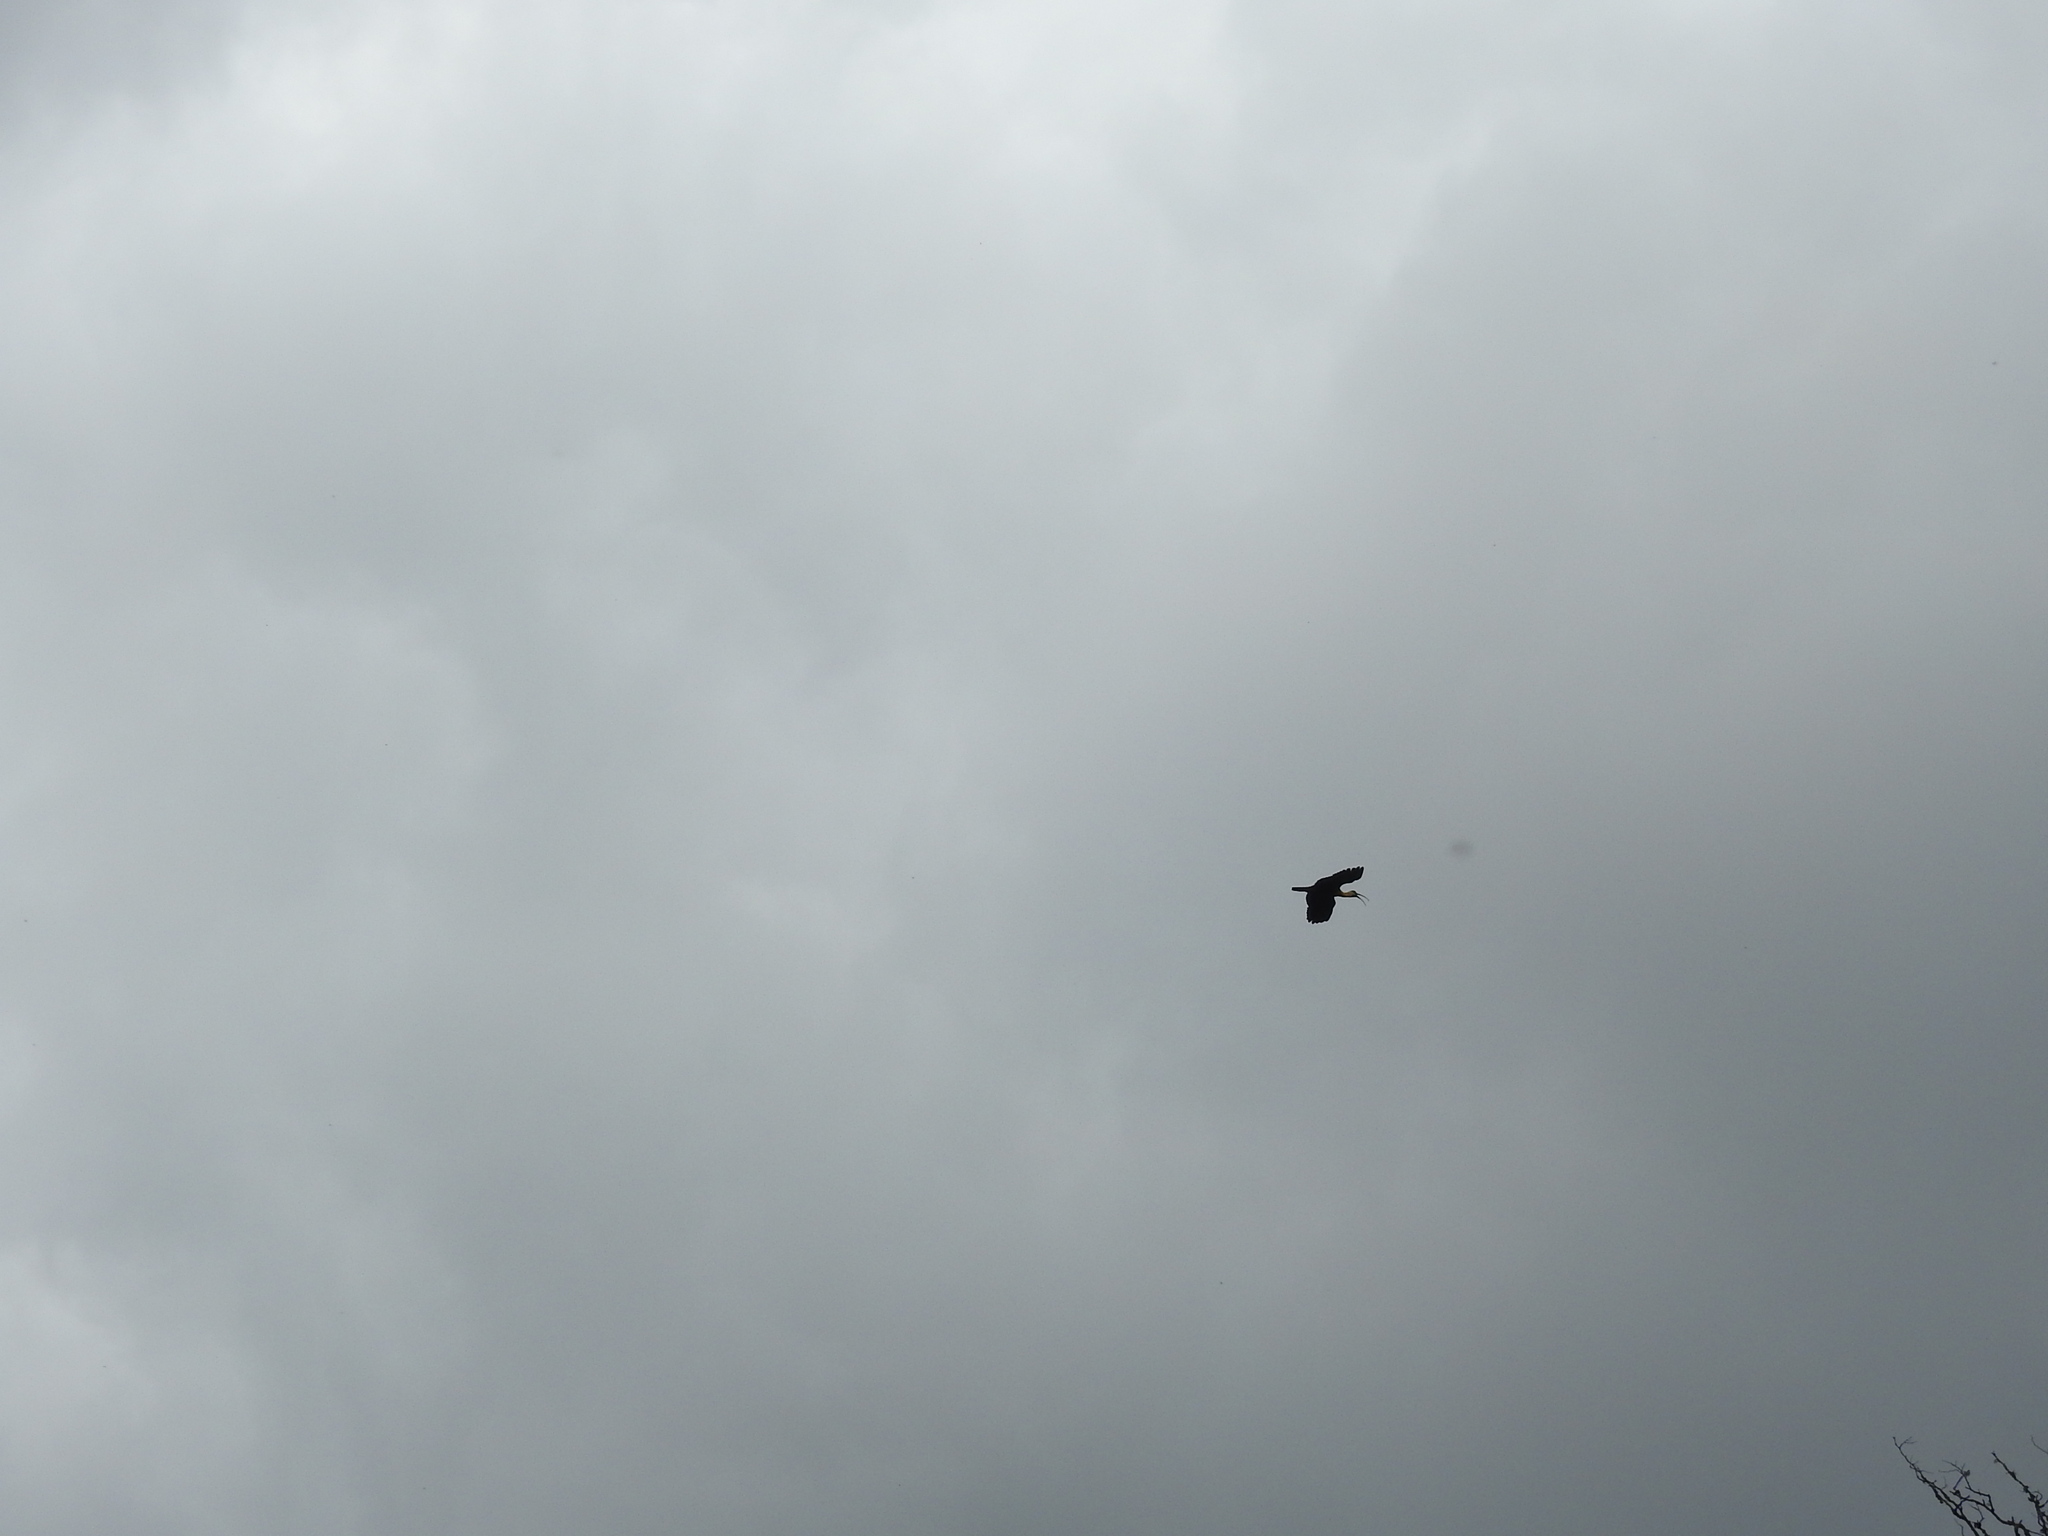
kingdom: Animalia
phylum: Chordata
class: Aves
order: Pelecaniformes
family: Threskiornithidae
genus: Theristicus
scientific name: Theristicus caudatus
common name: Buff-necked ibis
